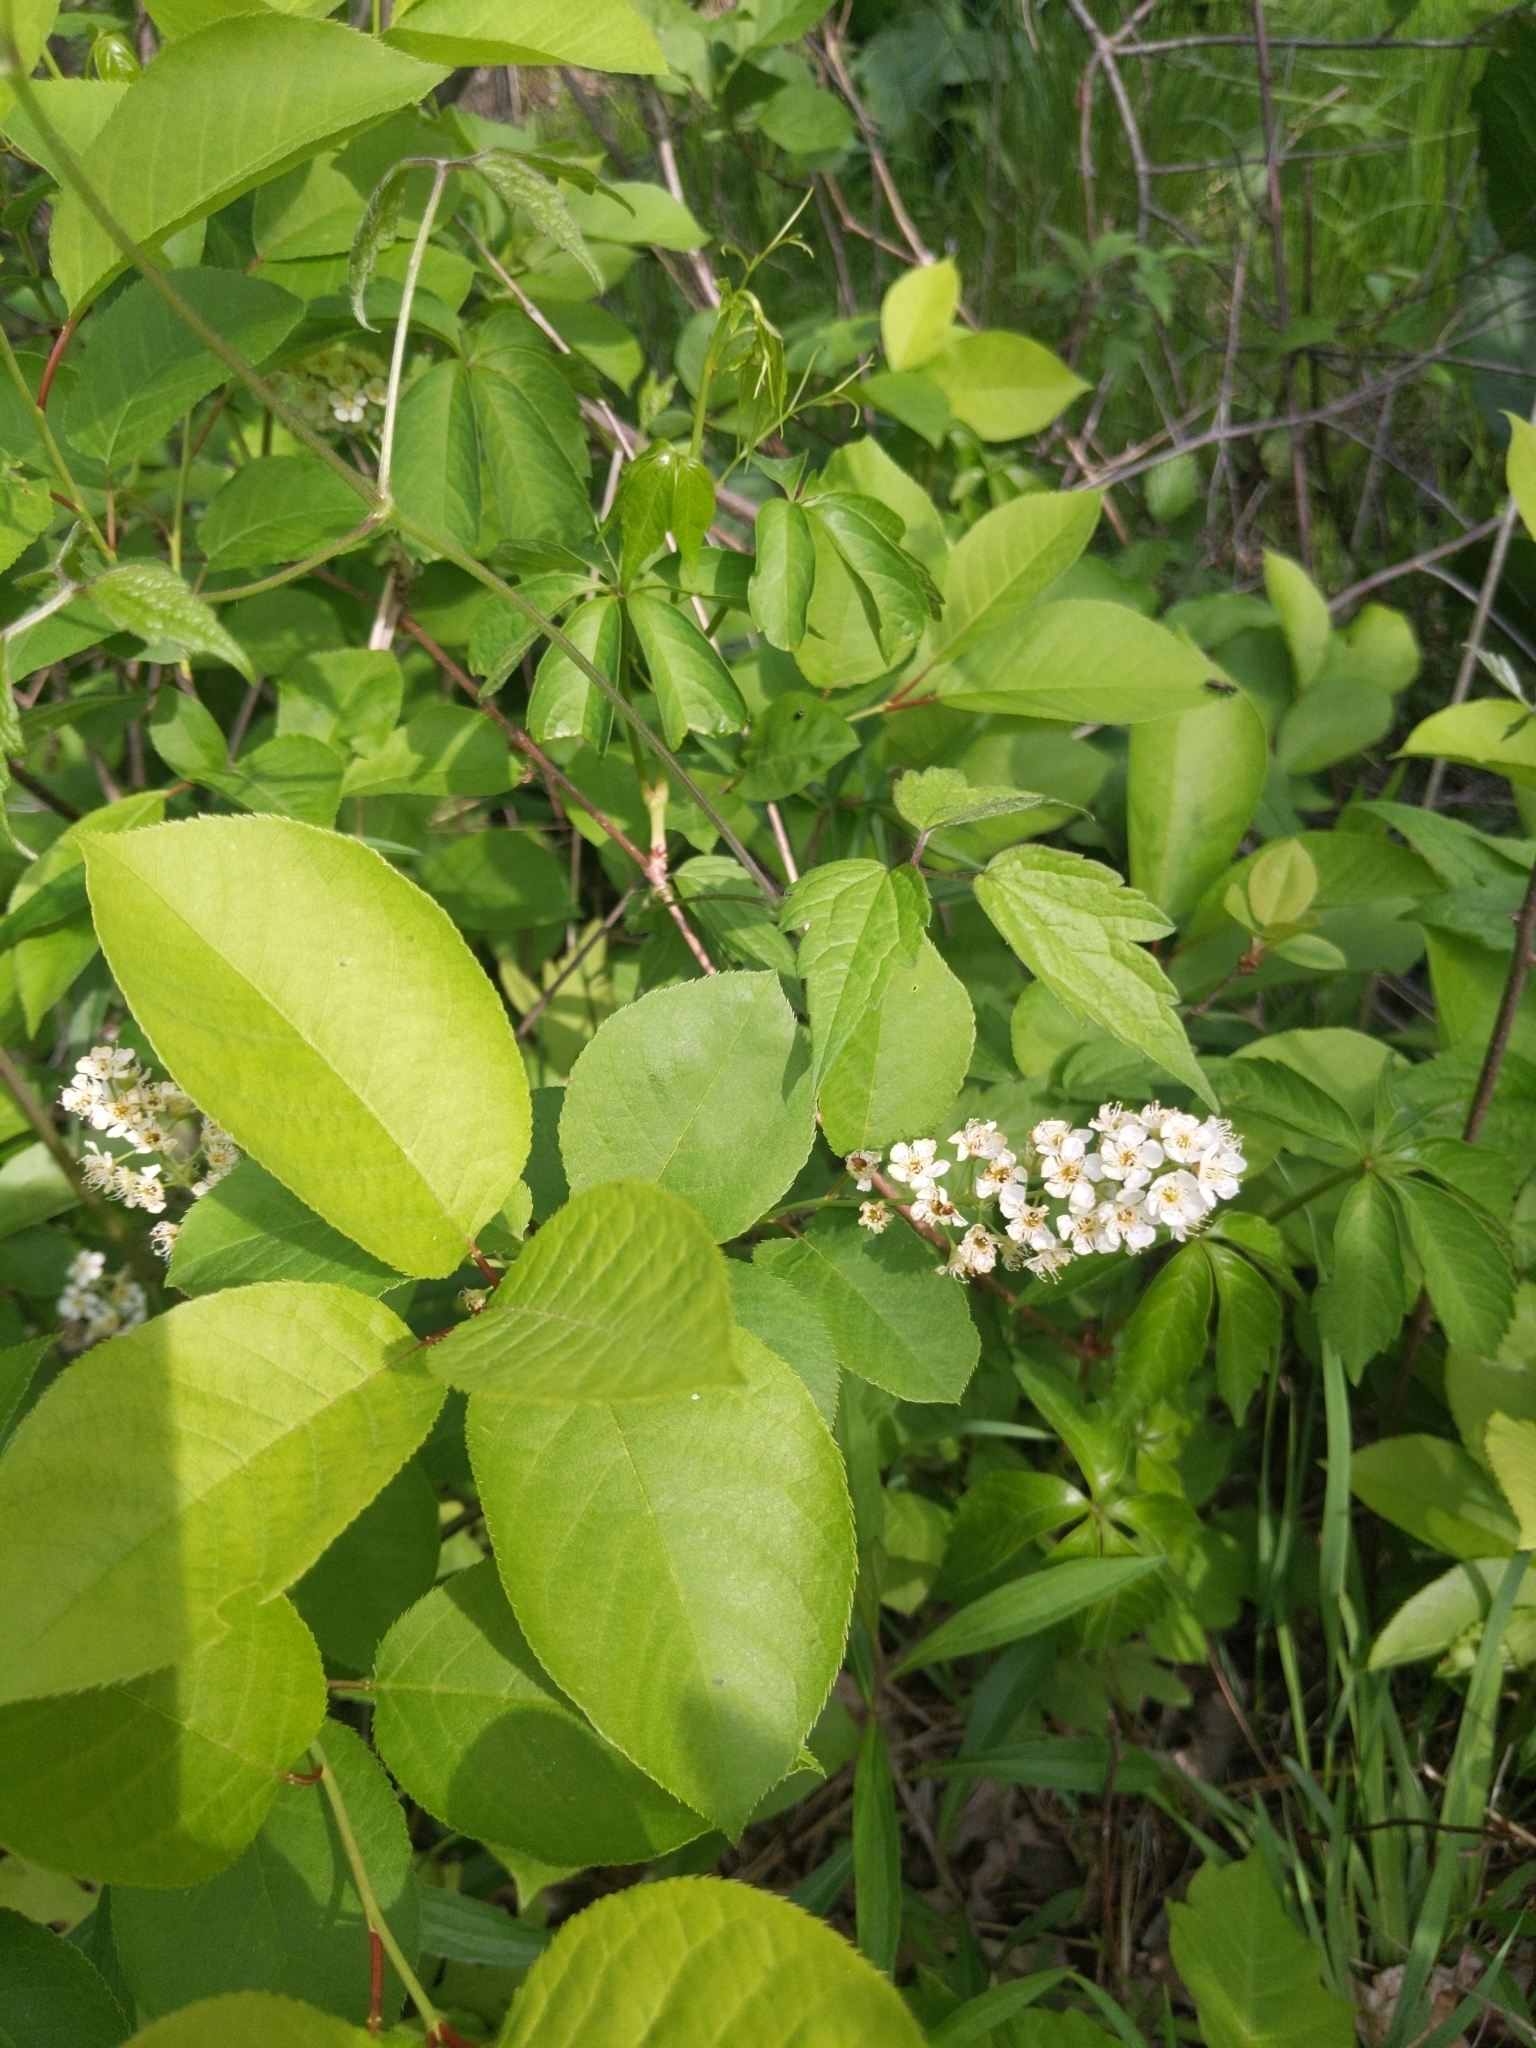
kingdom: Plantae
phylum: Tracheophyta
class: Magnoliopsida
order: Rosales
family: Rosaceae
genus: Prunus
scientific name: Prunus virginiana
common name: Chokecherry
